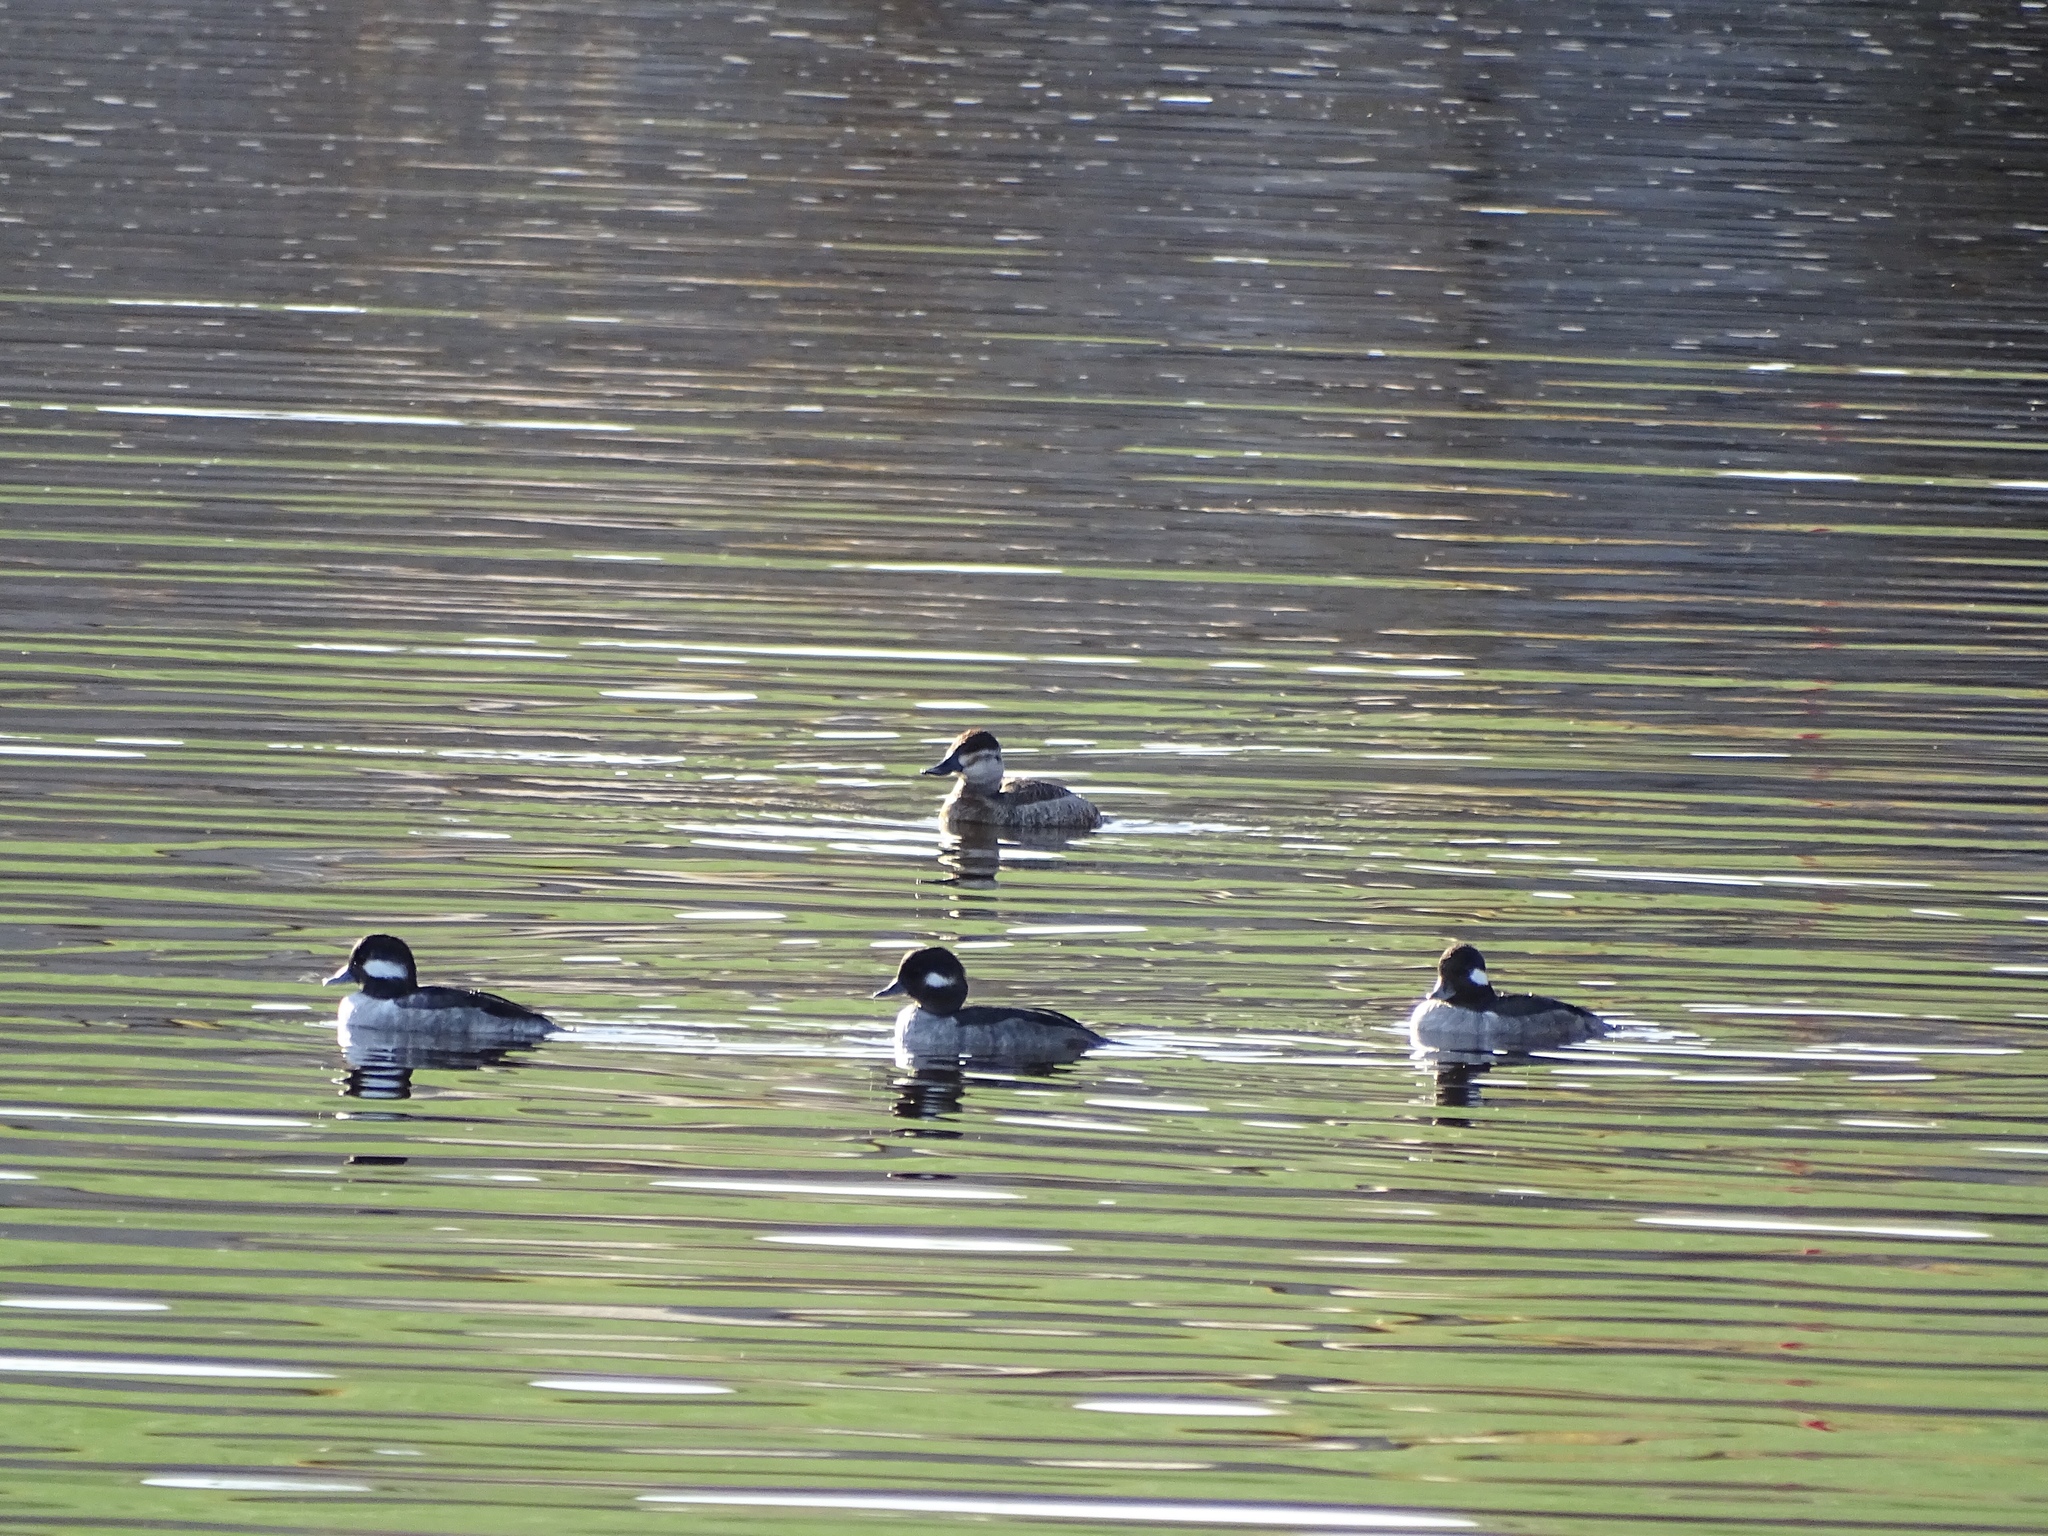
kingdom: Animalia
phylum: Chordata
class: Aves
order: Anseriformes
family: Anatidae
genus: Oxyura
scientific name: Oxyura jamaicensis
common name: Ruddy duck
